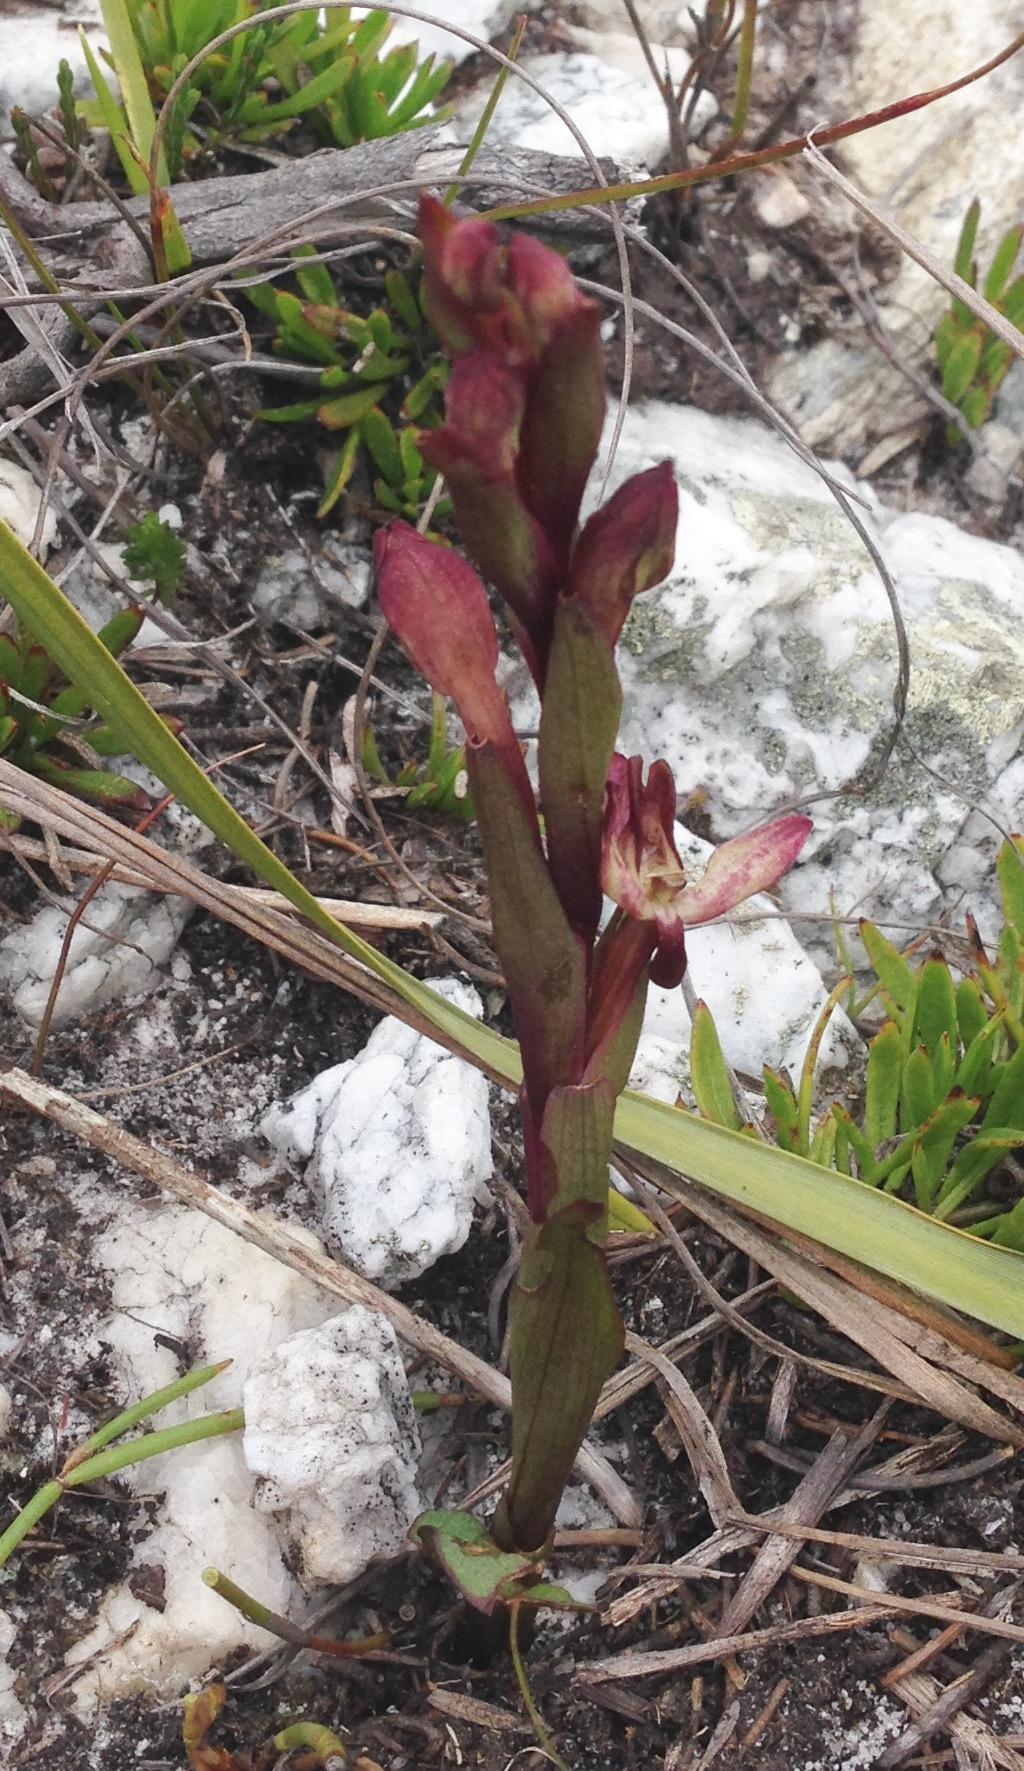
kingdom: Plantae
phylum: Tracheophyta
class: Liliopsida
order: Asparagales
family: Orchidaceae
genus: Disa
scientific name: Disa ophrydea
